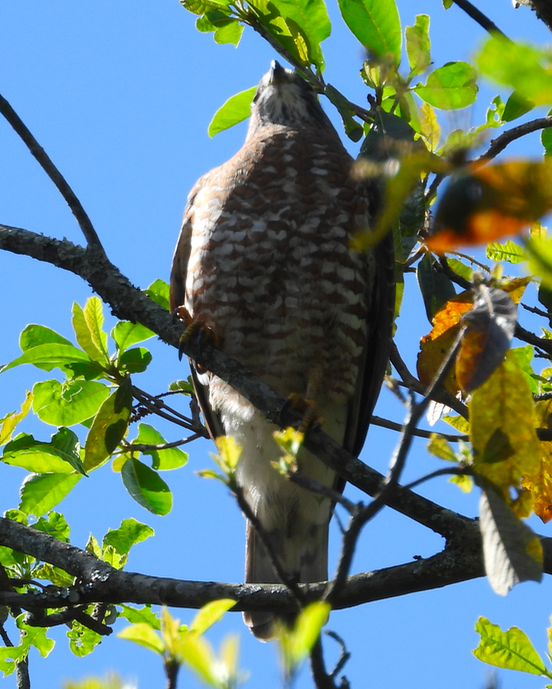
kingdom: Animalia
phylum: Chordata
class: Aves
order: Accipitriformes
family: Accipitridae
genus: Buteo
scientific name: Buteo platypterus
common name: Broad-winged hawk
